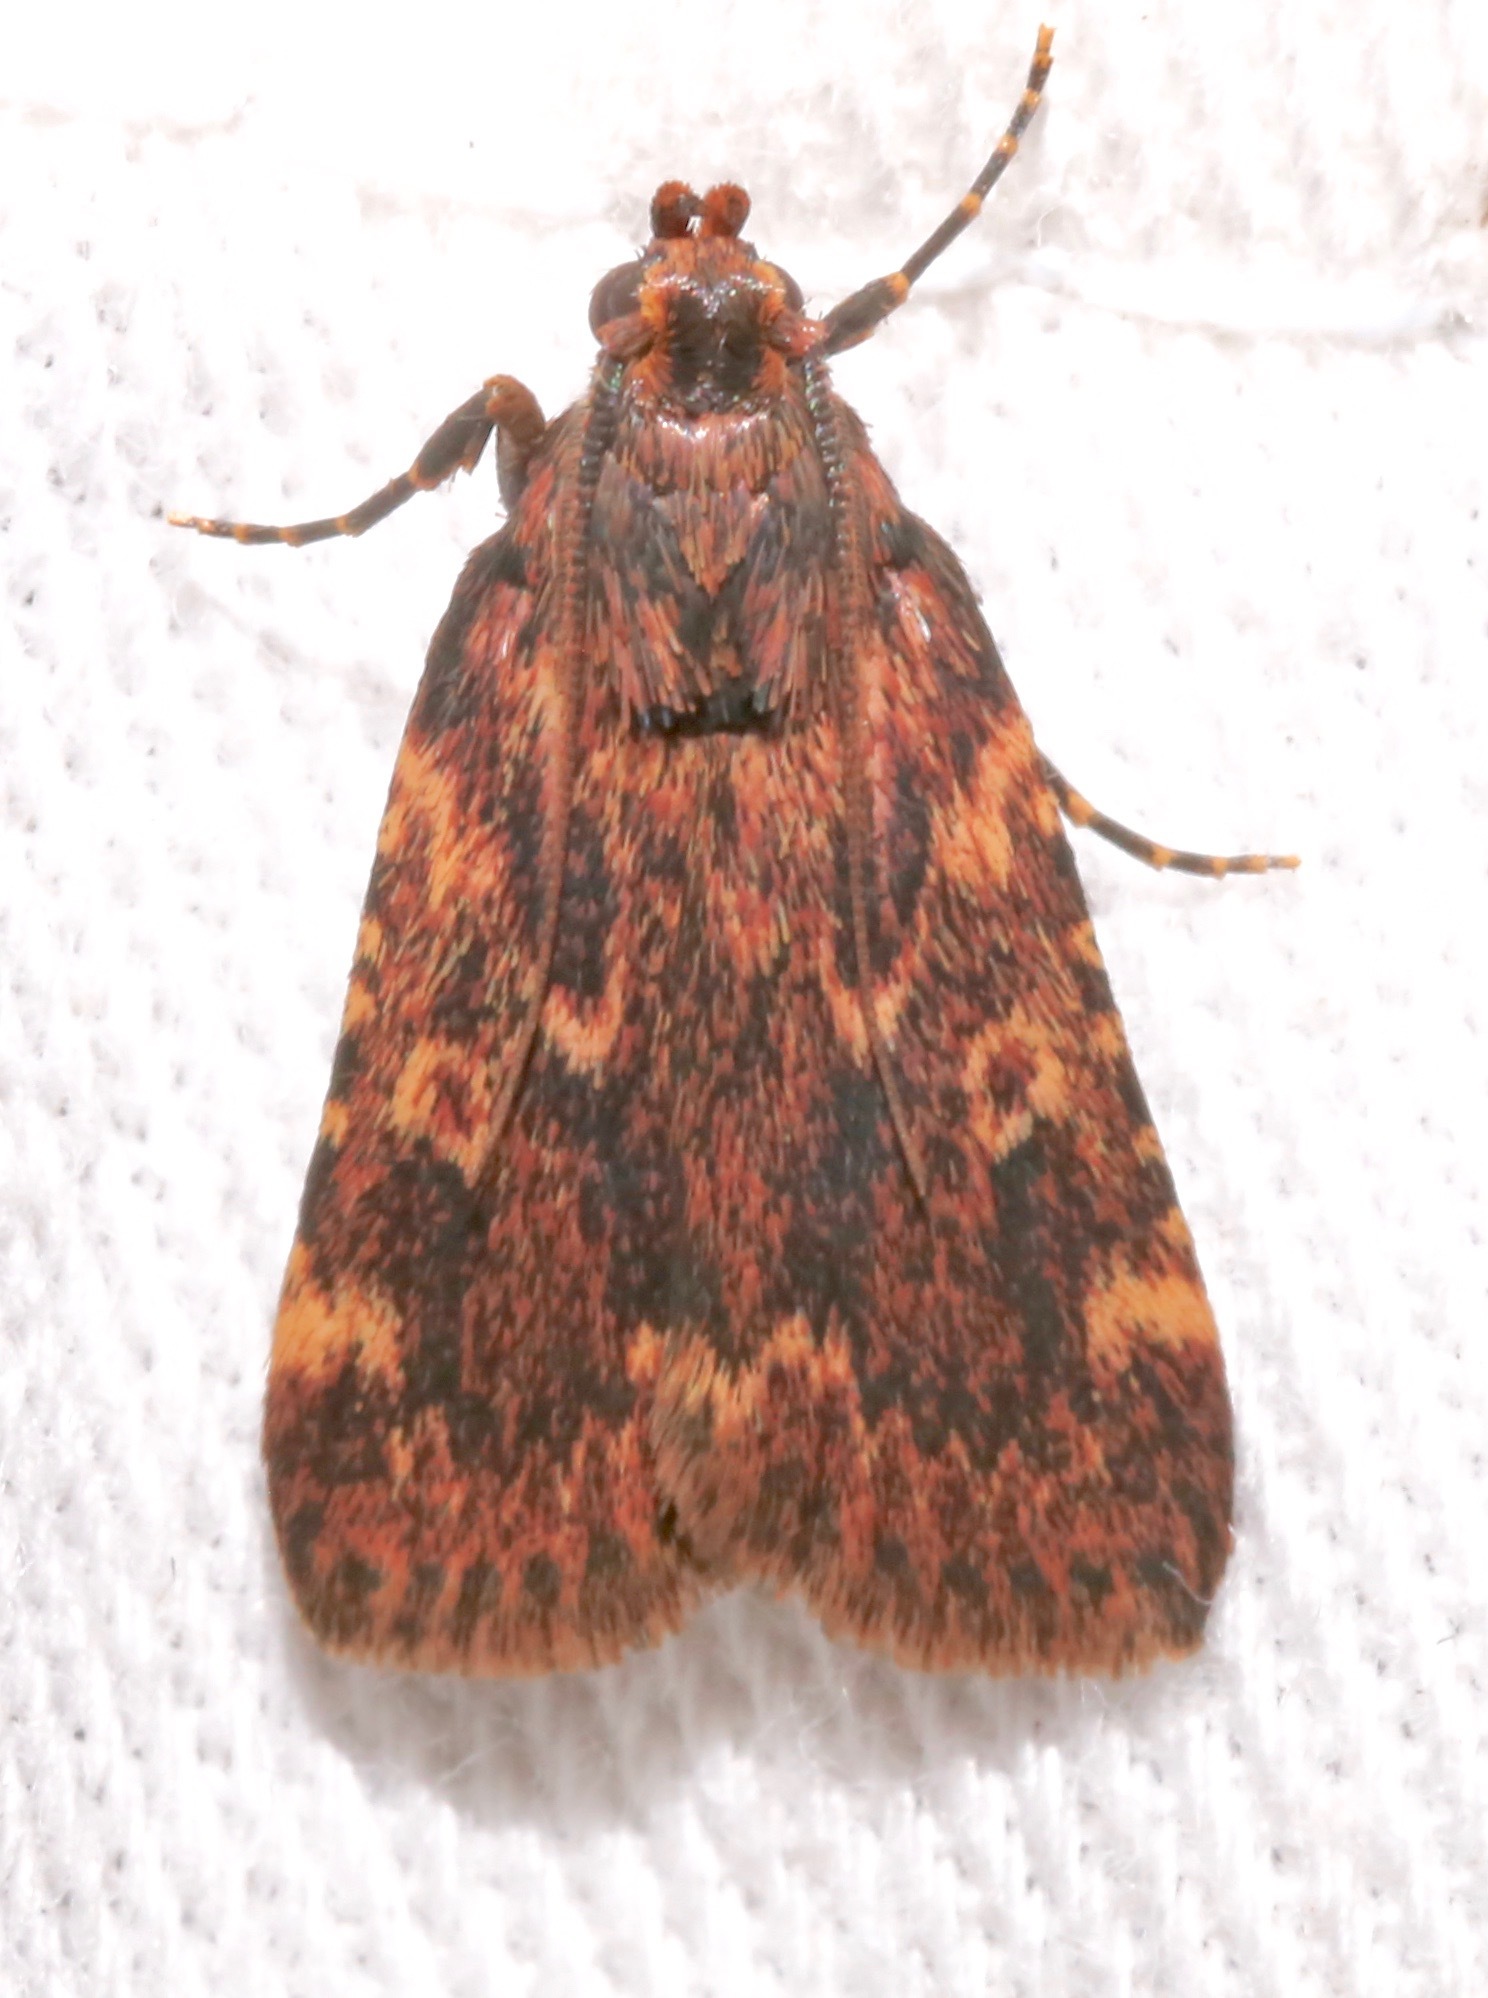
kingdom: Animalia
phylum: Arthropoda
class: Insecta
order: Lepidoptera
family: Pyralidae
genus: Aglossa
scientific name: Aglossa cuprina
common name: Grease moth
